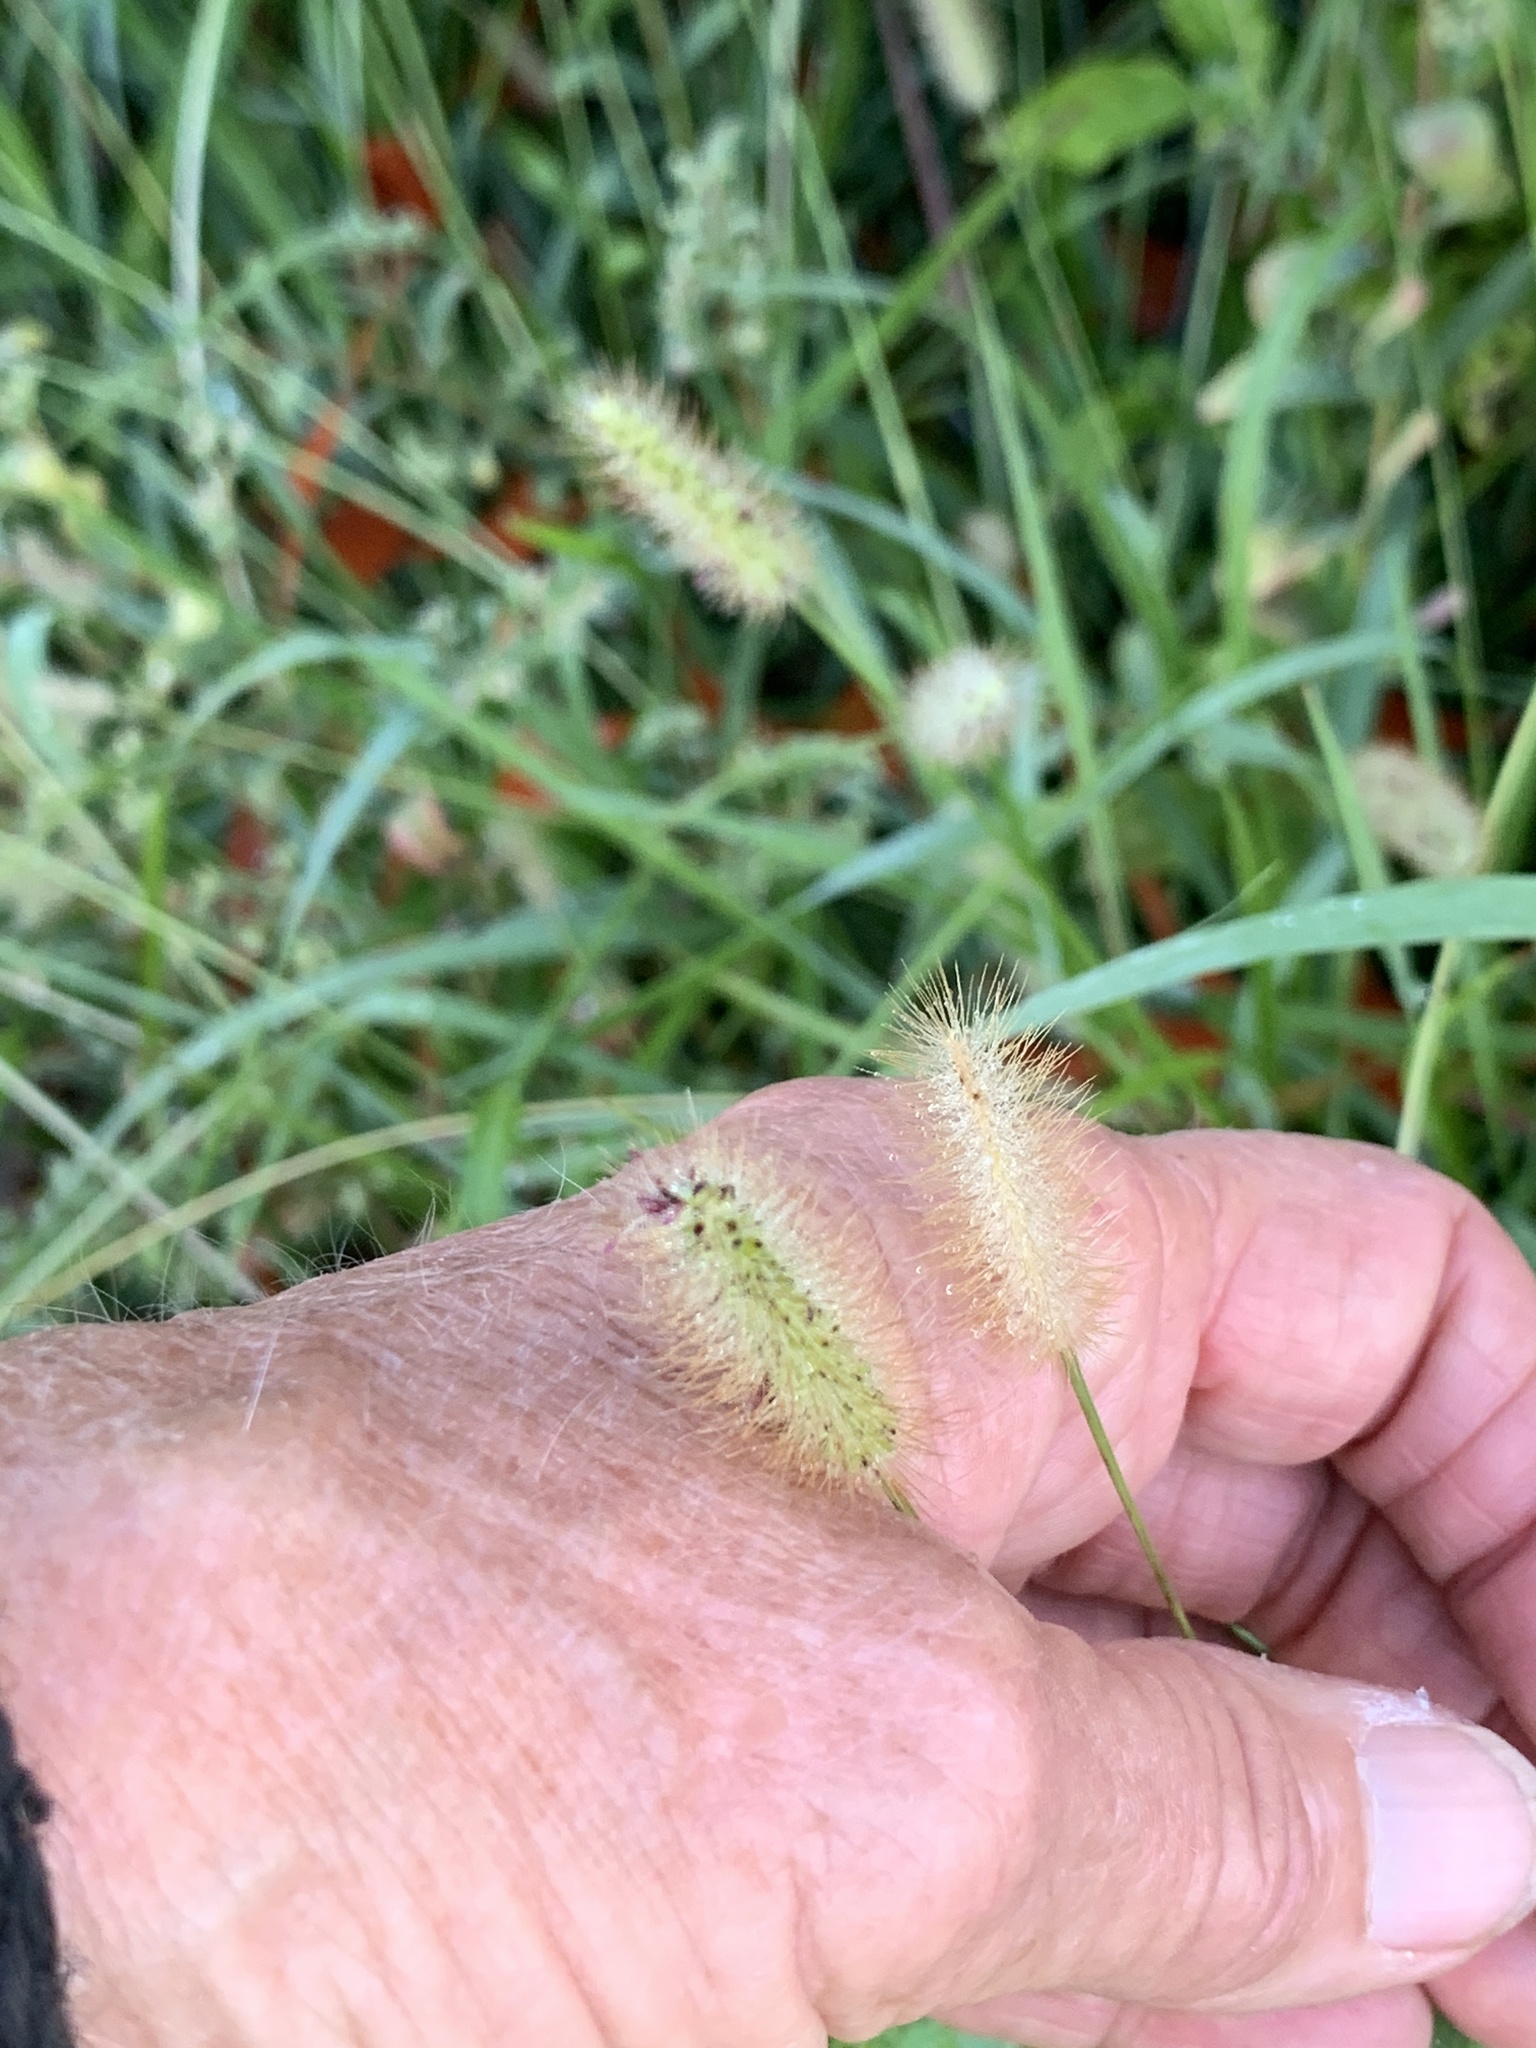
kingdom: Plantae
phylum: Tracheophyta
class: Liliopsida
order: Poales
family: Poaceae
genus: Setaria
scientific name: Setaria parviflora
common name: Knotroot bristle-grass
